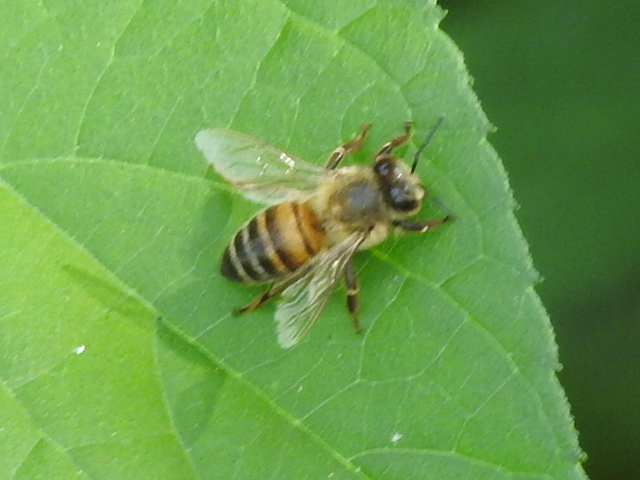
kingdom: Animalia
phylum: Arthropoda
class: Insecta
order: Hymenoptera
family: Apidae
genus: Apis
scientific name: Apis mellifera
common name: Honey bee
